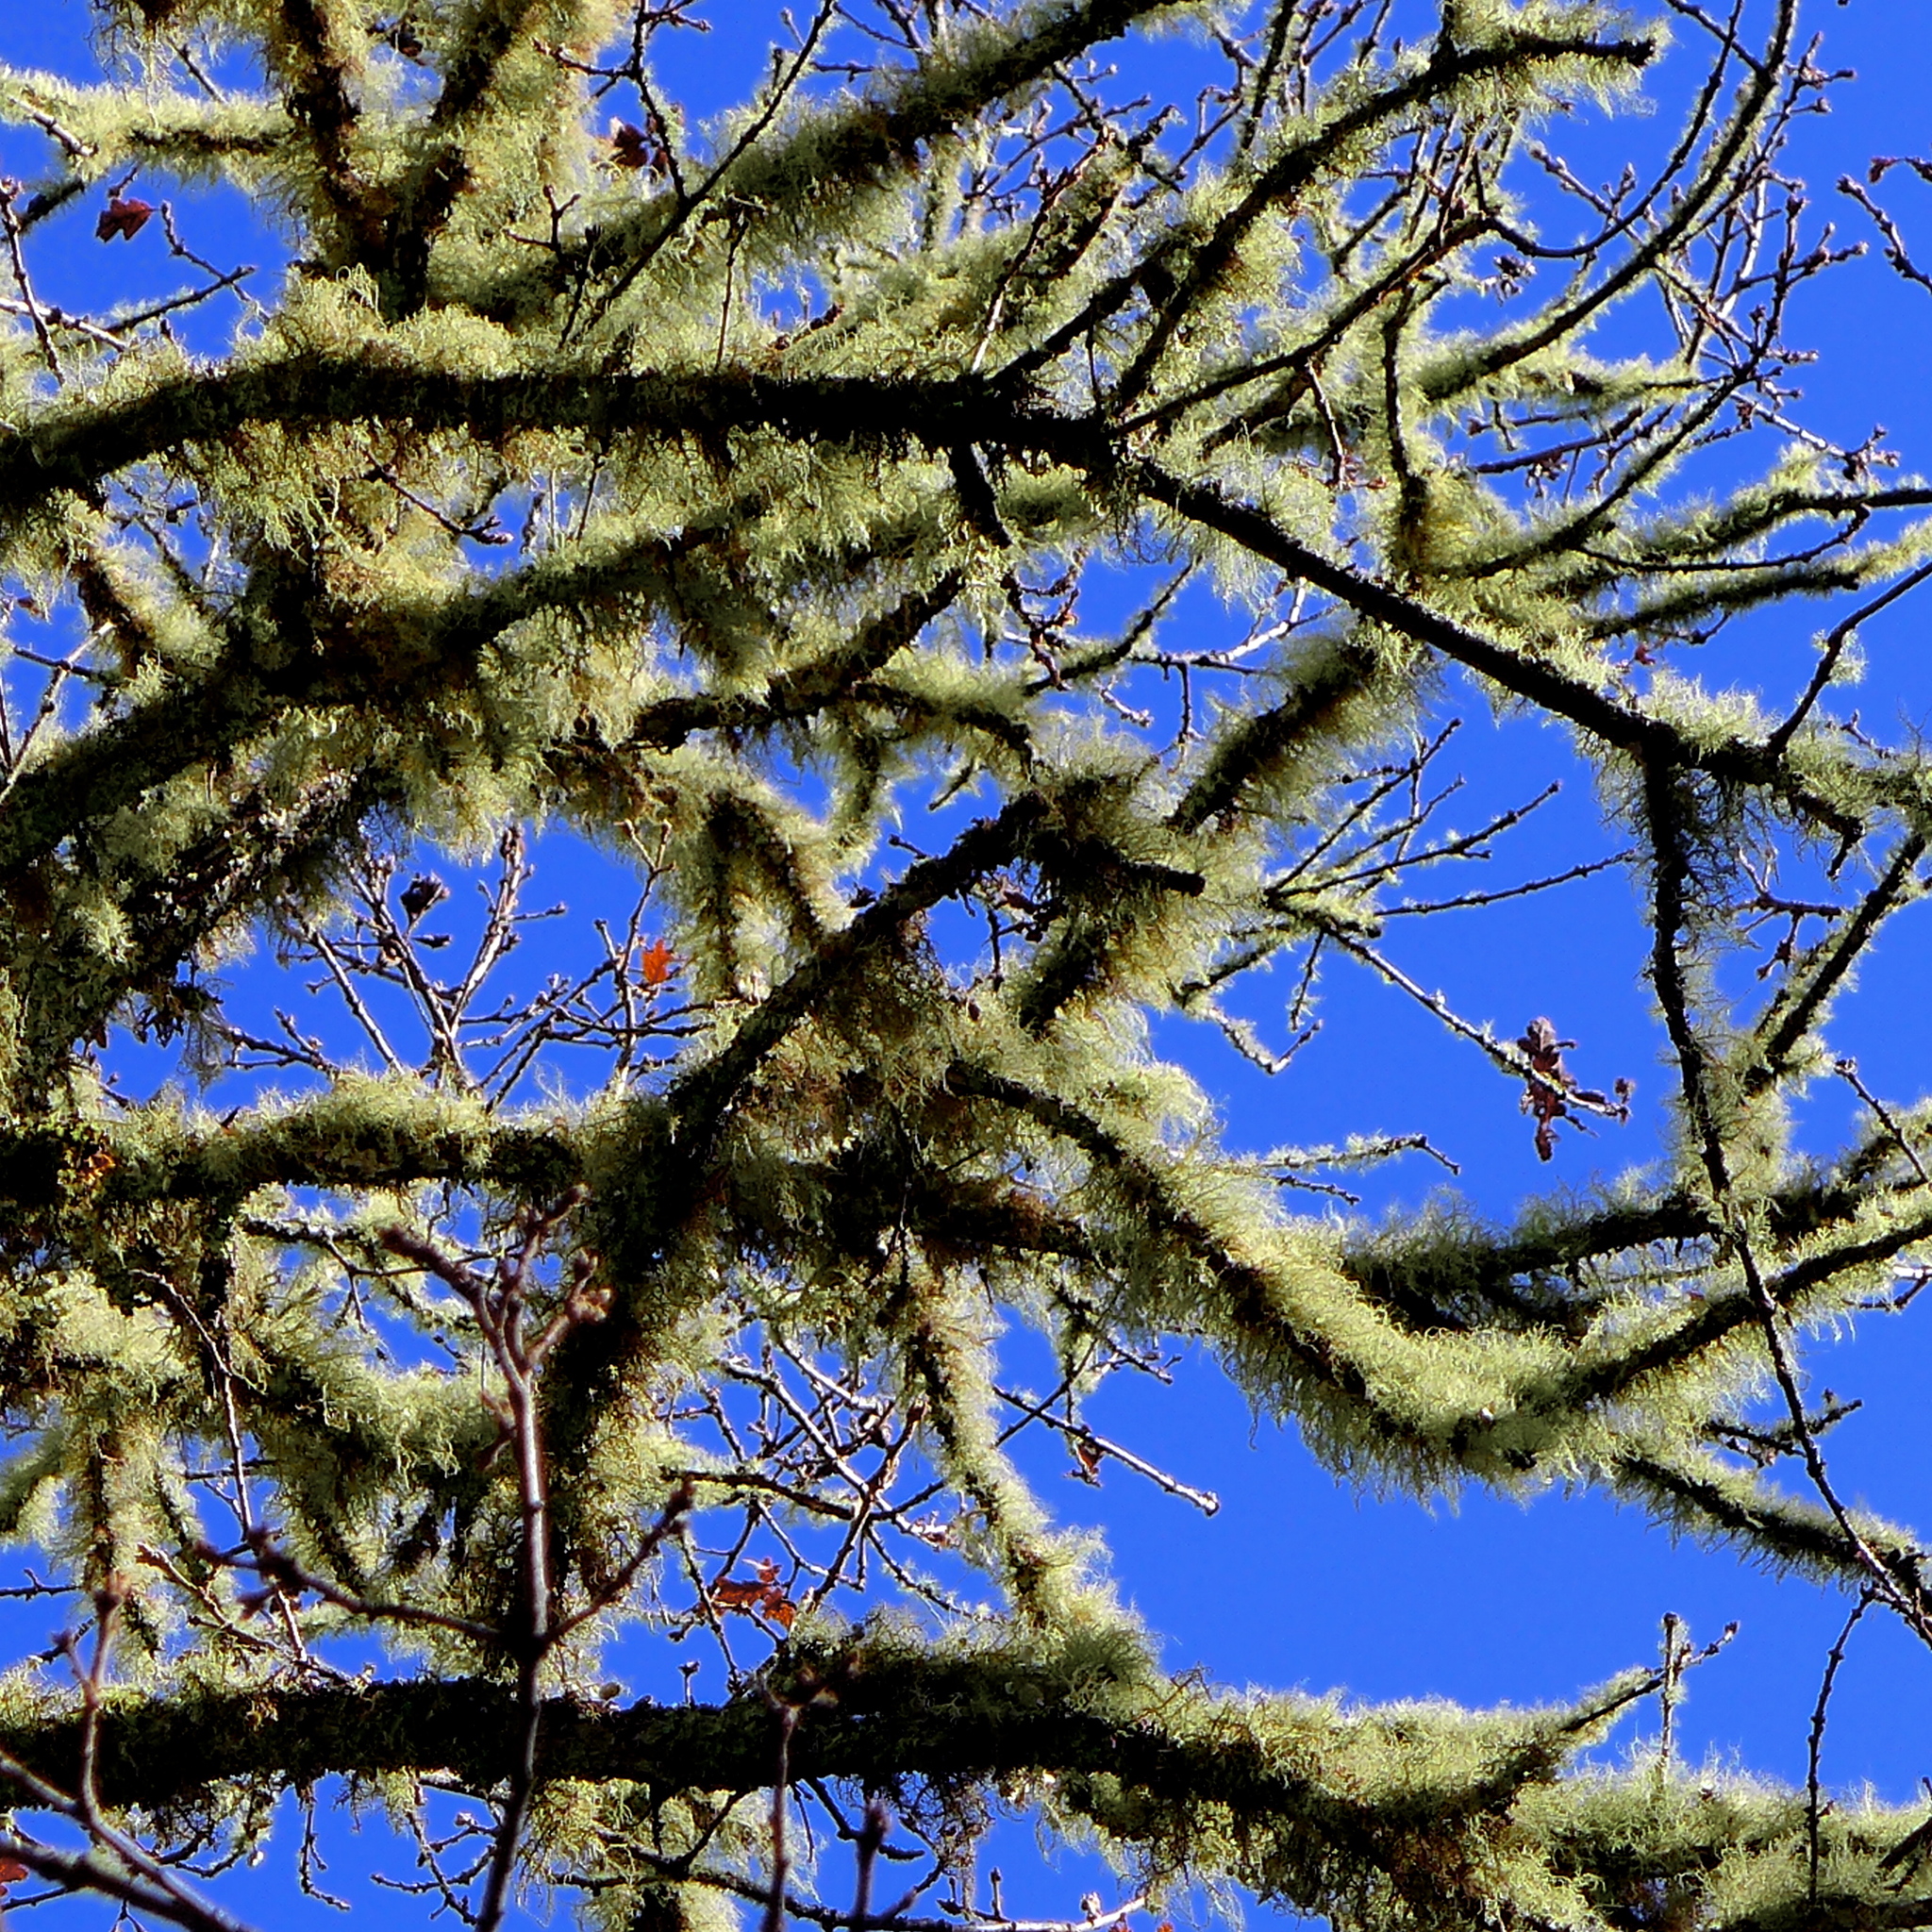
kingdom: Fungi
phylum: Ascomycota
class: Lecanoromycetes
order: Lecanorales
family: Parmeliaceae
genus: Evernia
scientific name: Evernia prunastri
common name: Oak moss
